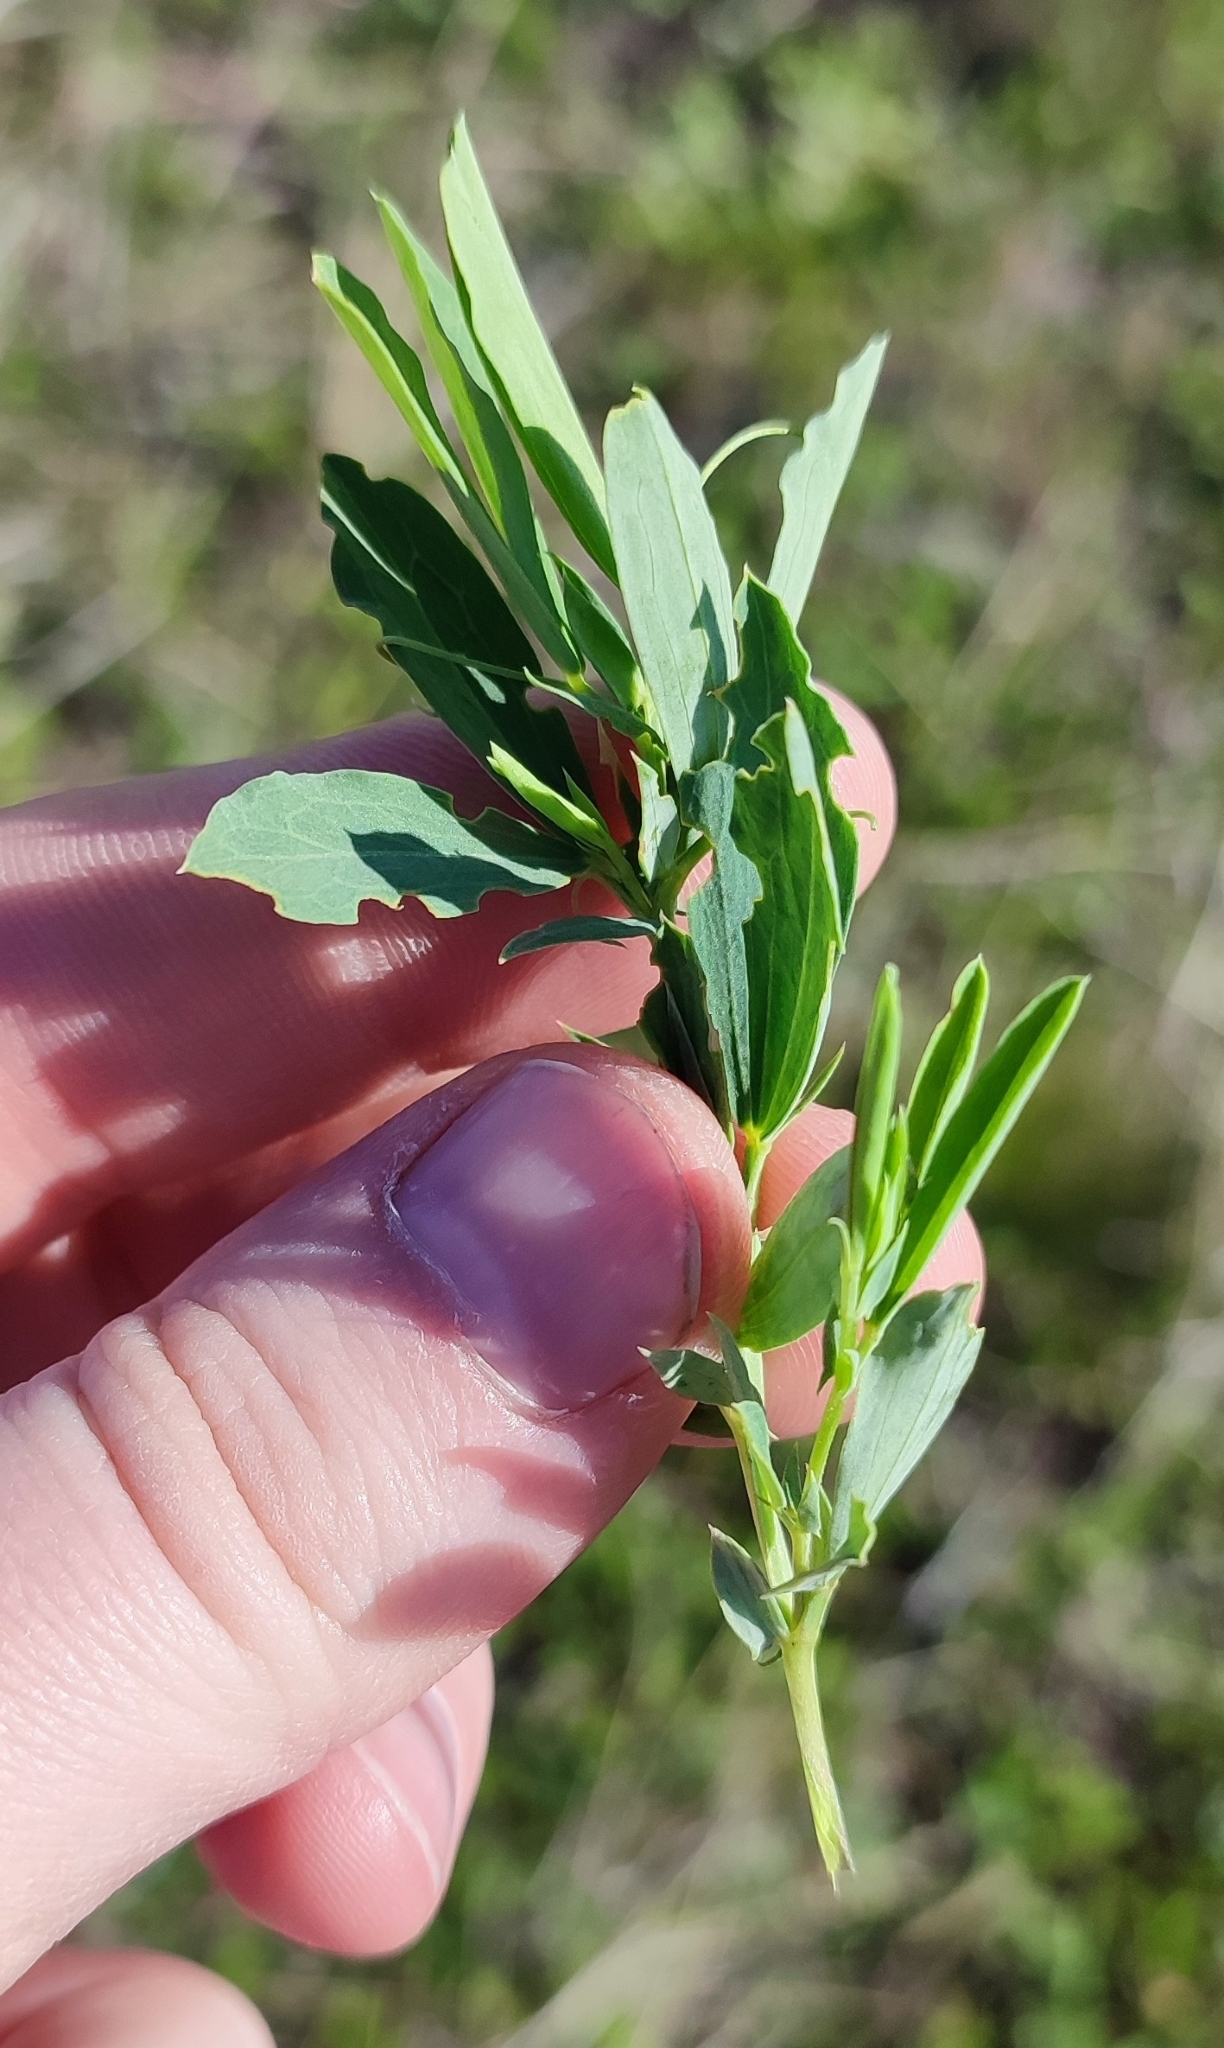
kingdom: Plantae
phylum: Tracheophyta
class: Magnoliopsida
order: Fabales
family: Fabaceae
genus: Lathyrus
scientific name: Lathyrus tuberosus
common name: Tuberous pea
